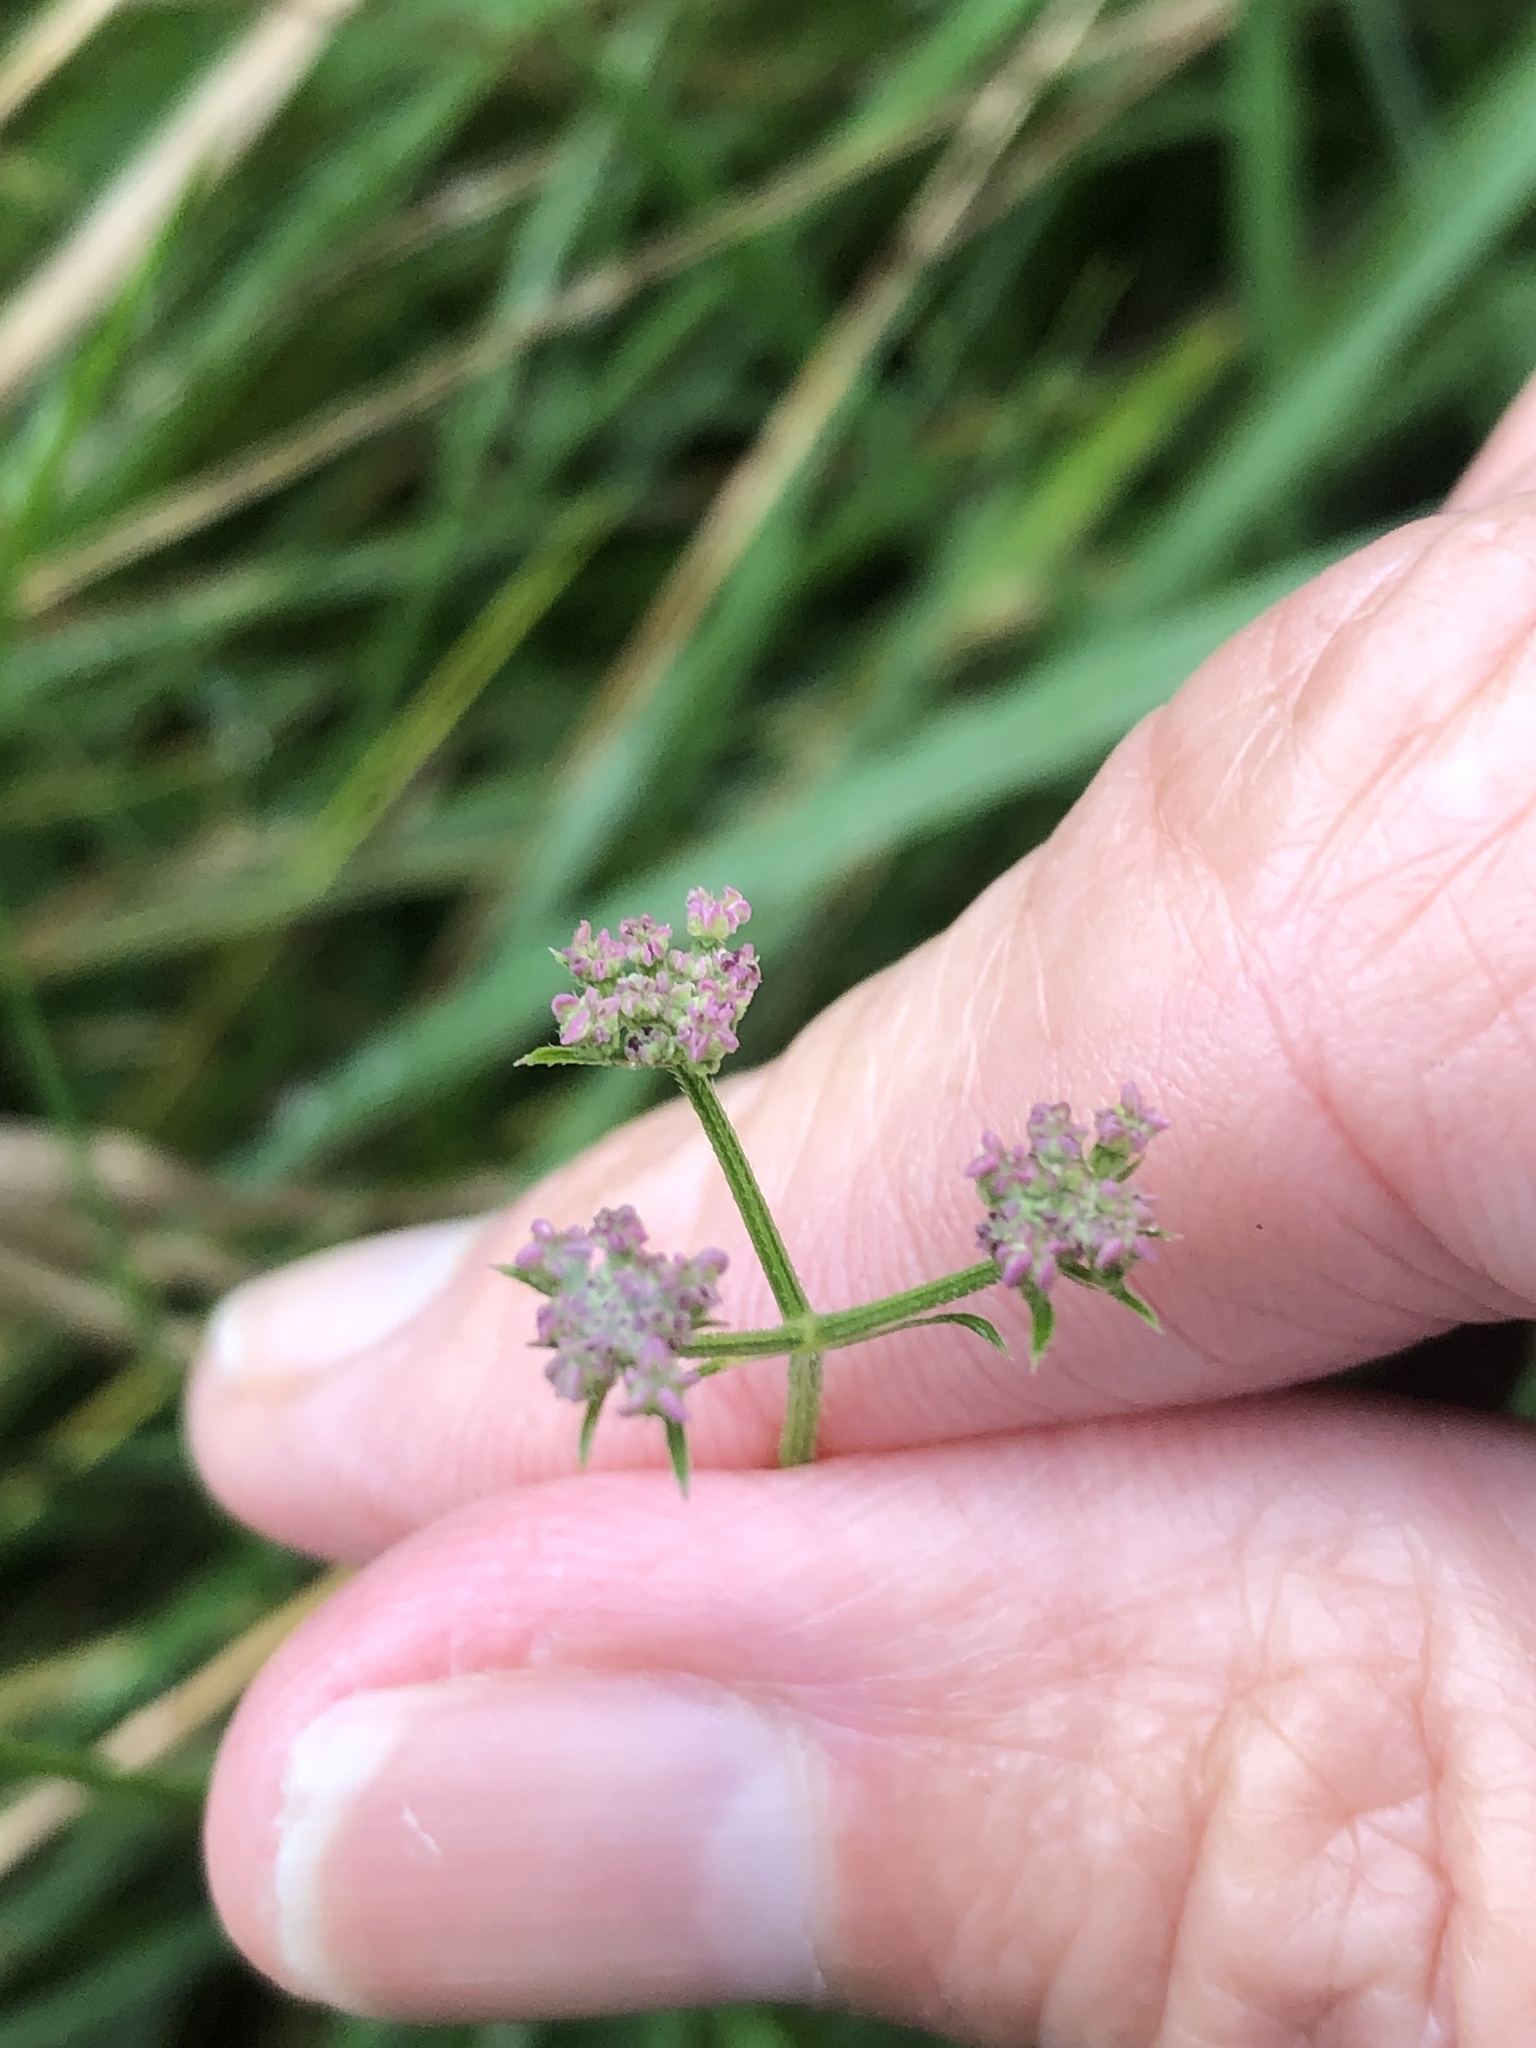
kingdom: Plantae
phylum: Tracheophyta
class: Magnoliopsida
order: Apiales
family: Apiaceae
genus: Torilis
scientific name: Torilis japonica
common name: Upright hedge-parsley
